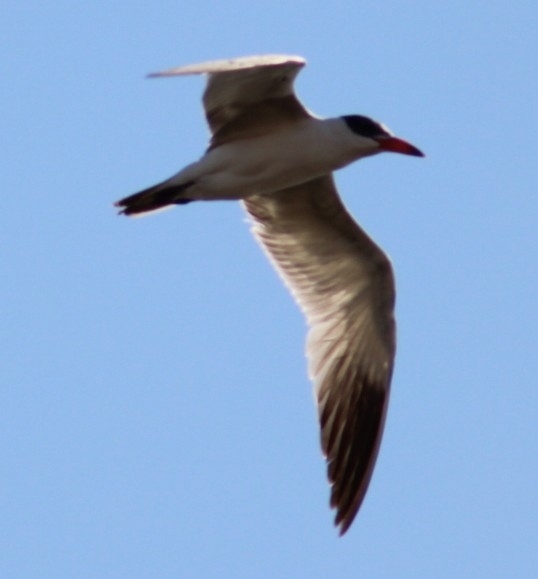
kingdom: Animalia
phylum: Chordata
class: Aves
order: Charadriiformes
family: Laridae
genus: Hydroprogne
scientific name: Hydroprogne caspia
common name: Caspian tern
